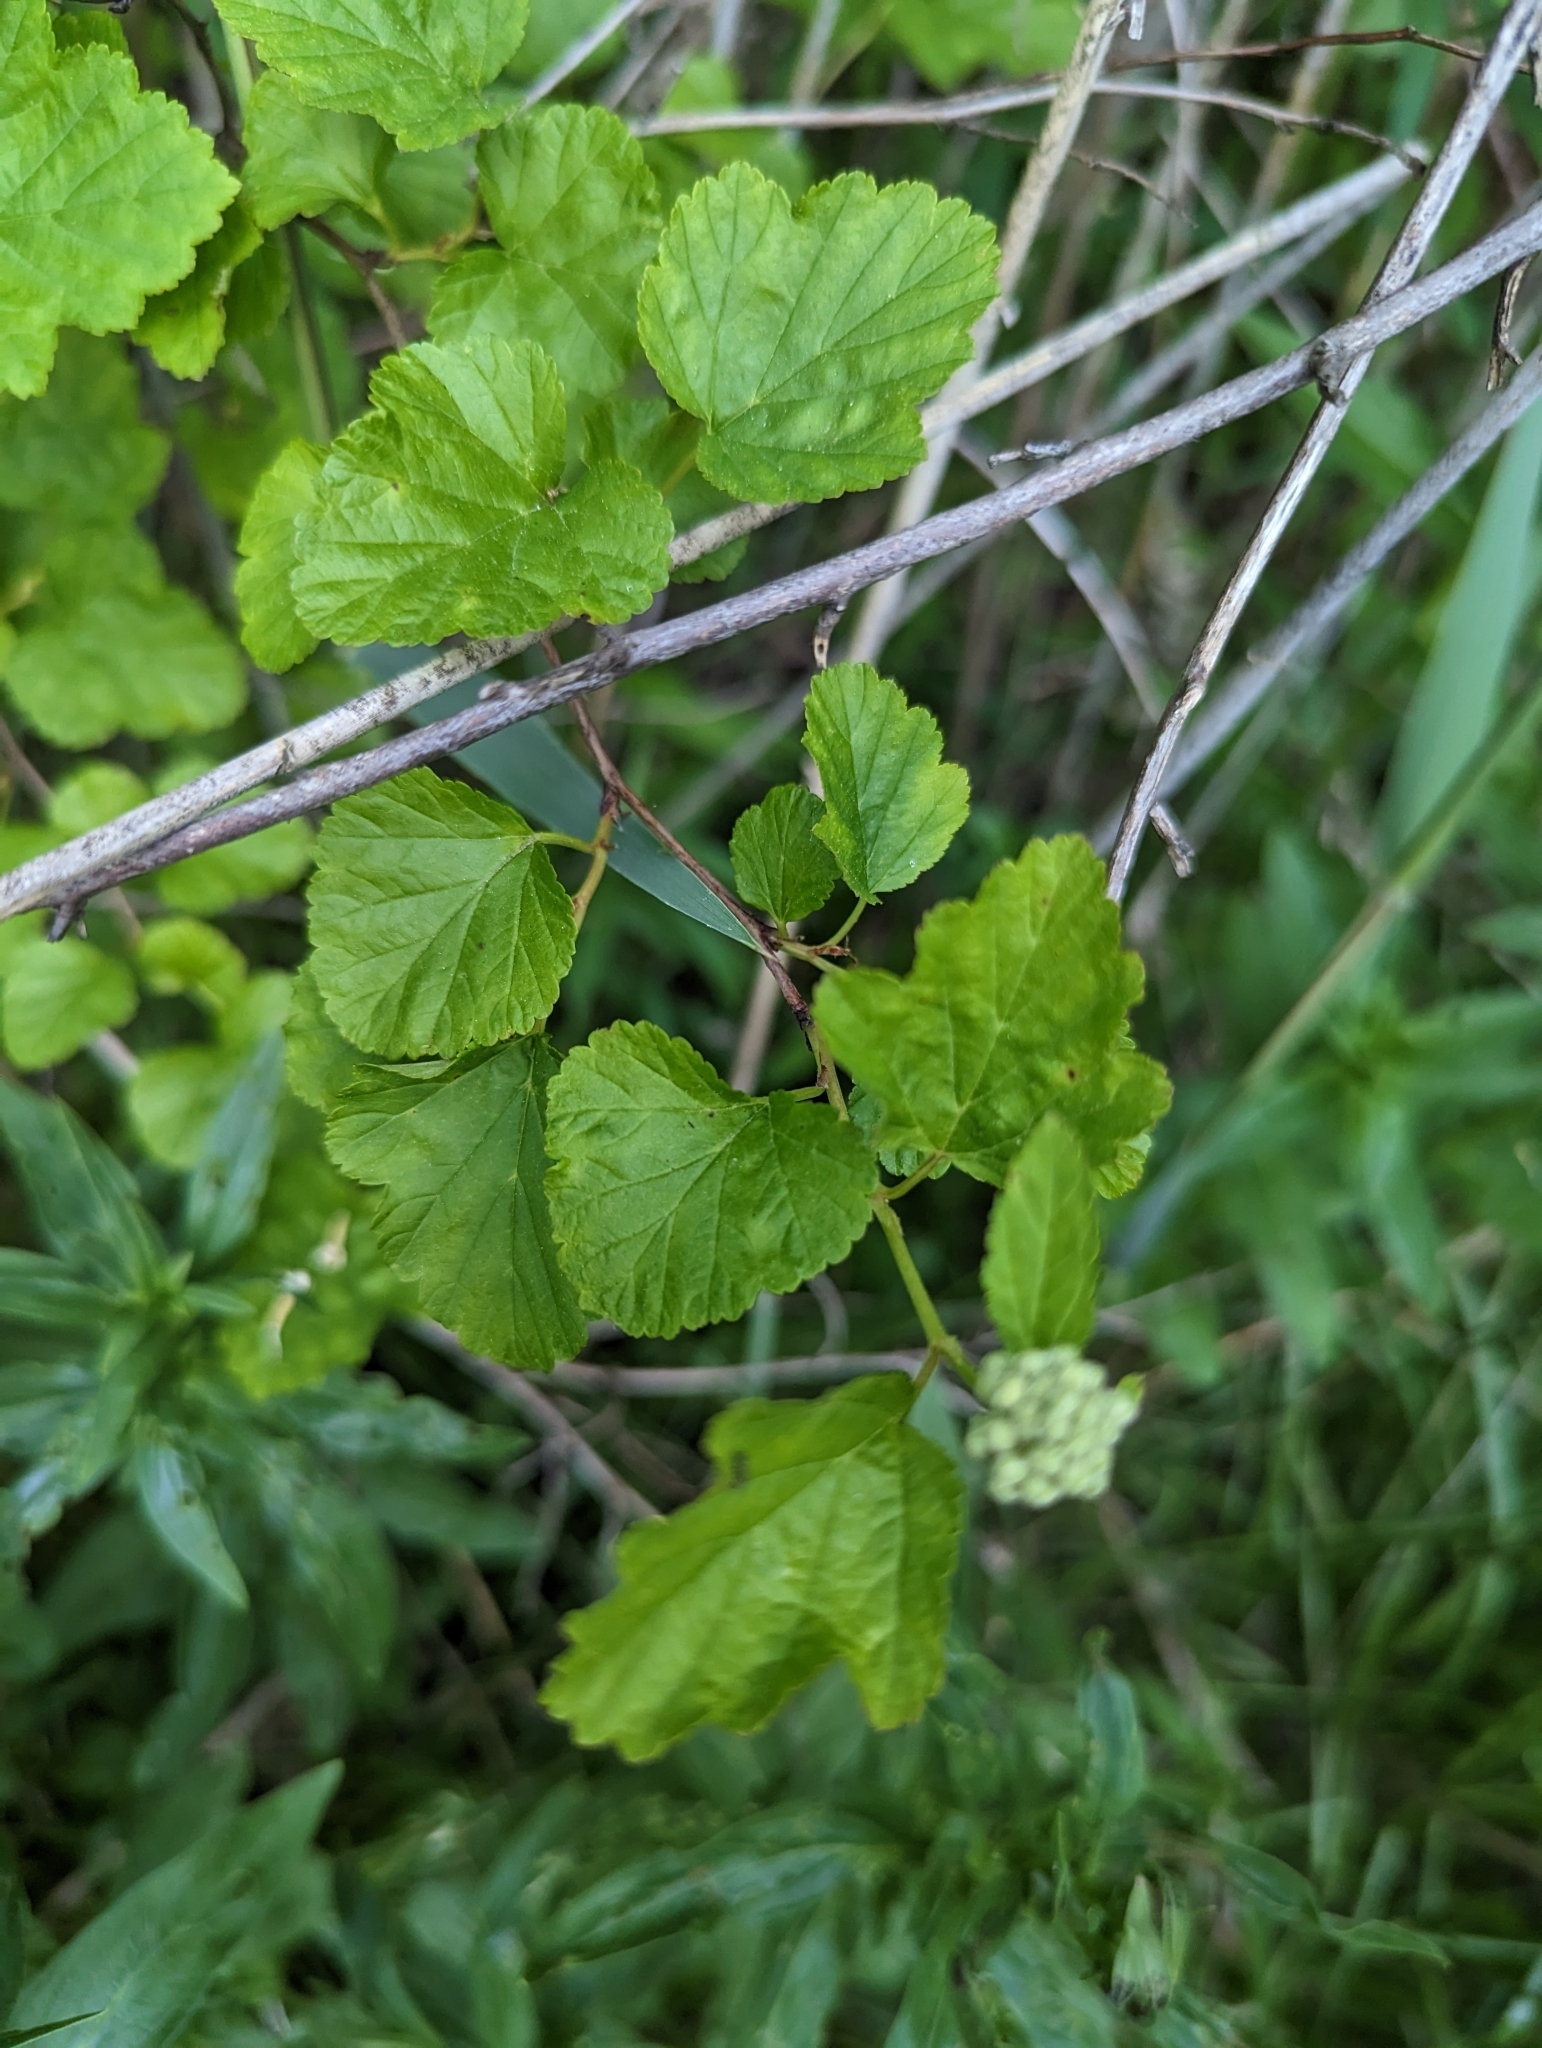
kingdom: Plantae
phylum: Tracheophyta
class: Magnoliopsida
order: Rosales
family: Rosaceae
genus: Physocarpus
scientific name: Physocarpus opulifolius
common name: Ninebark
